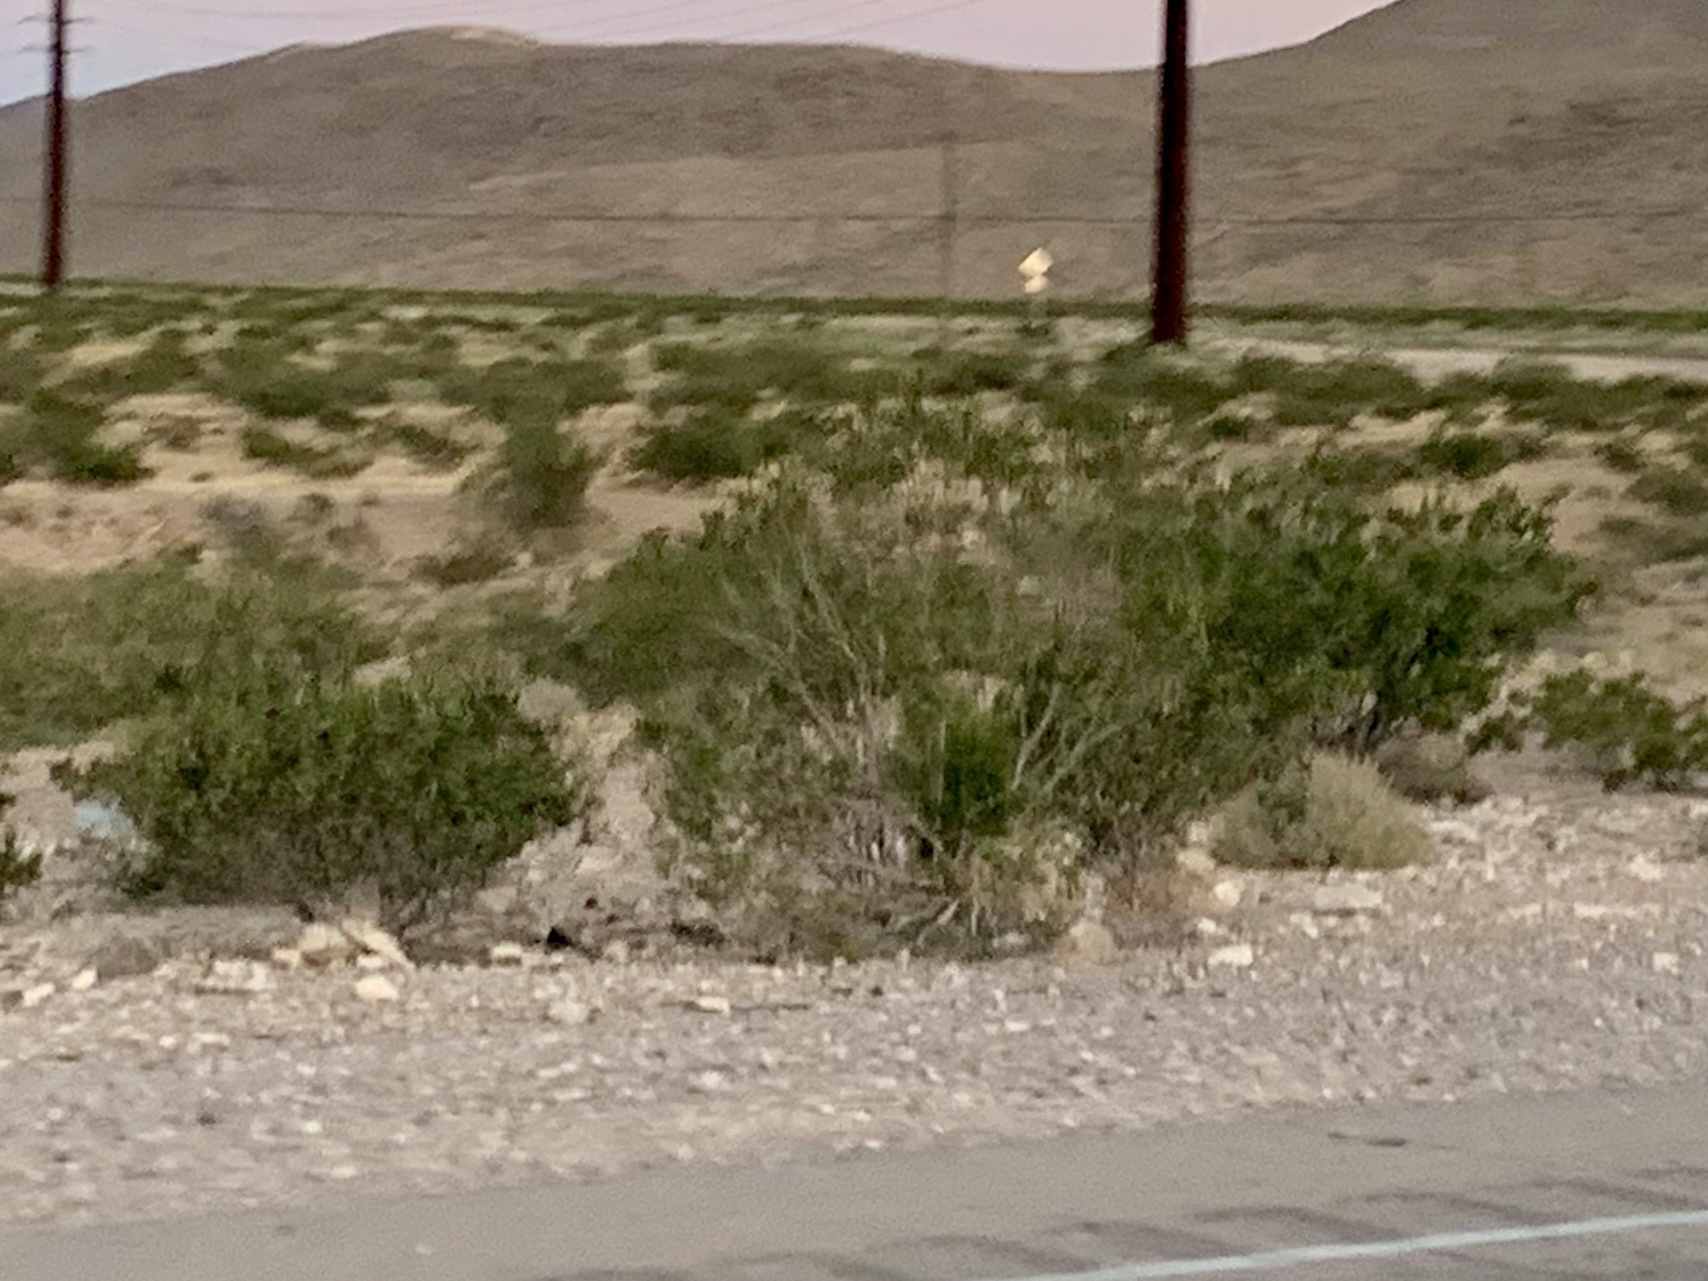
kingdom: Plantae
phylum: Tracheophyta
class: Magnoliopsida
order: Zygophyllales
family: Zygophyllaceae
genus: Larrea
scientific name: Larrea tridentata
